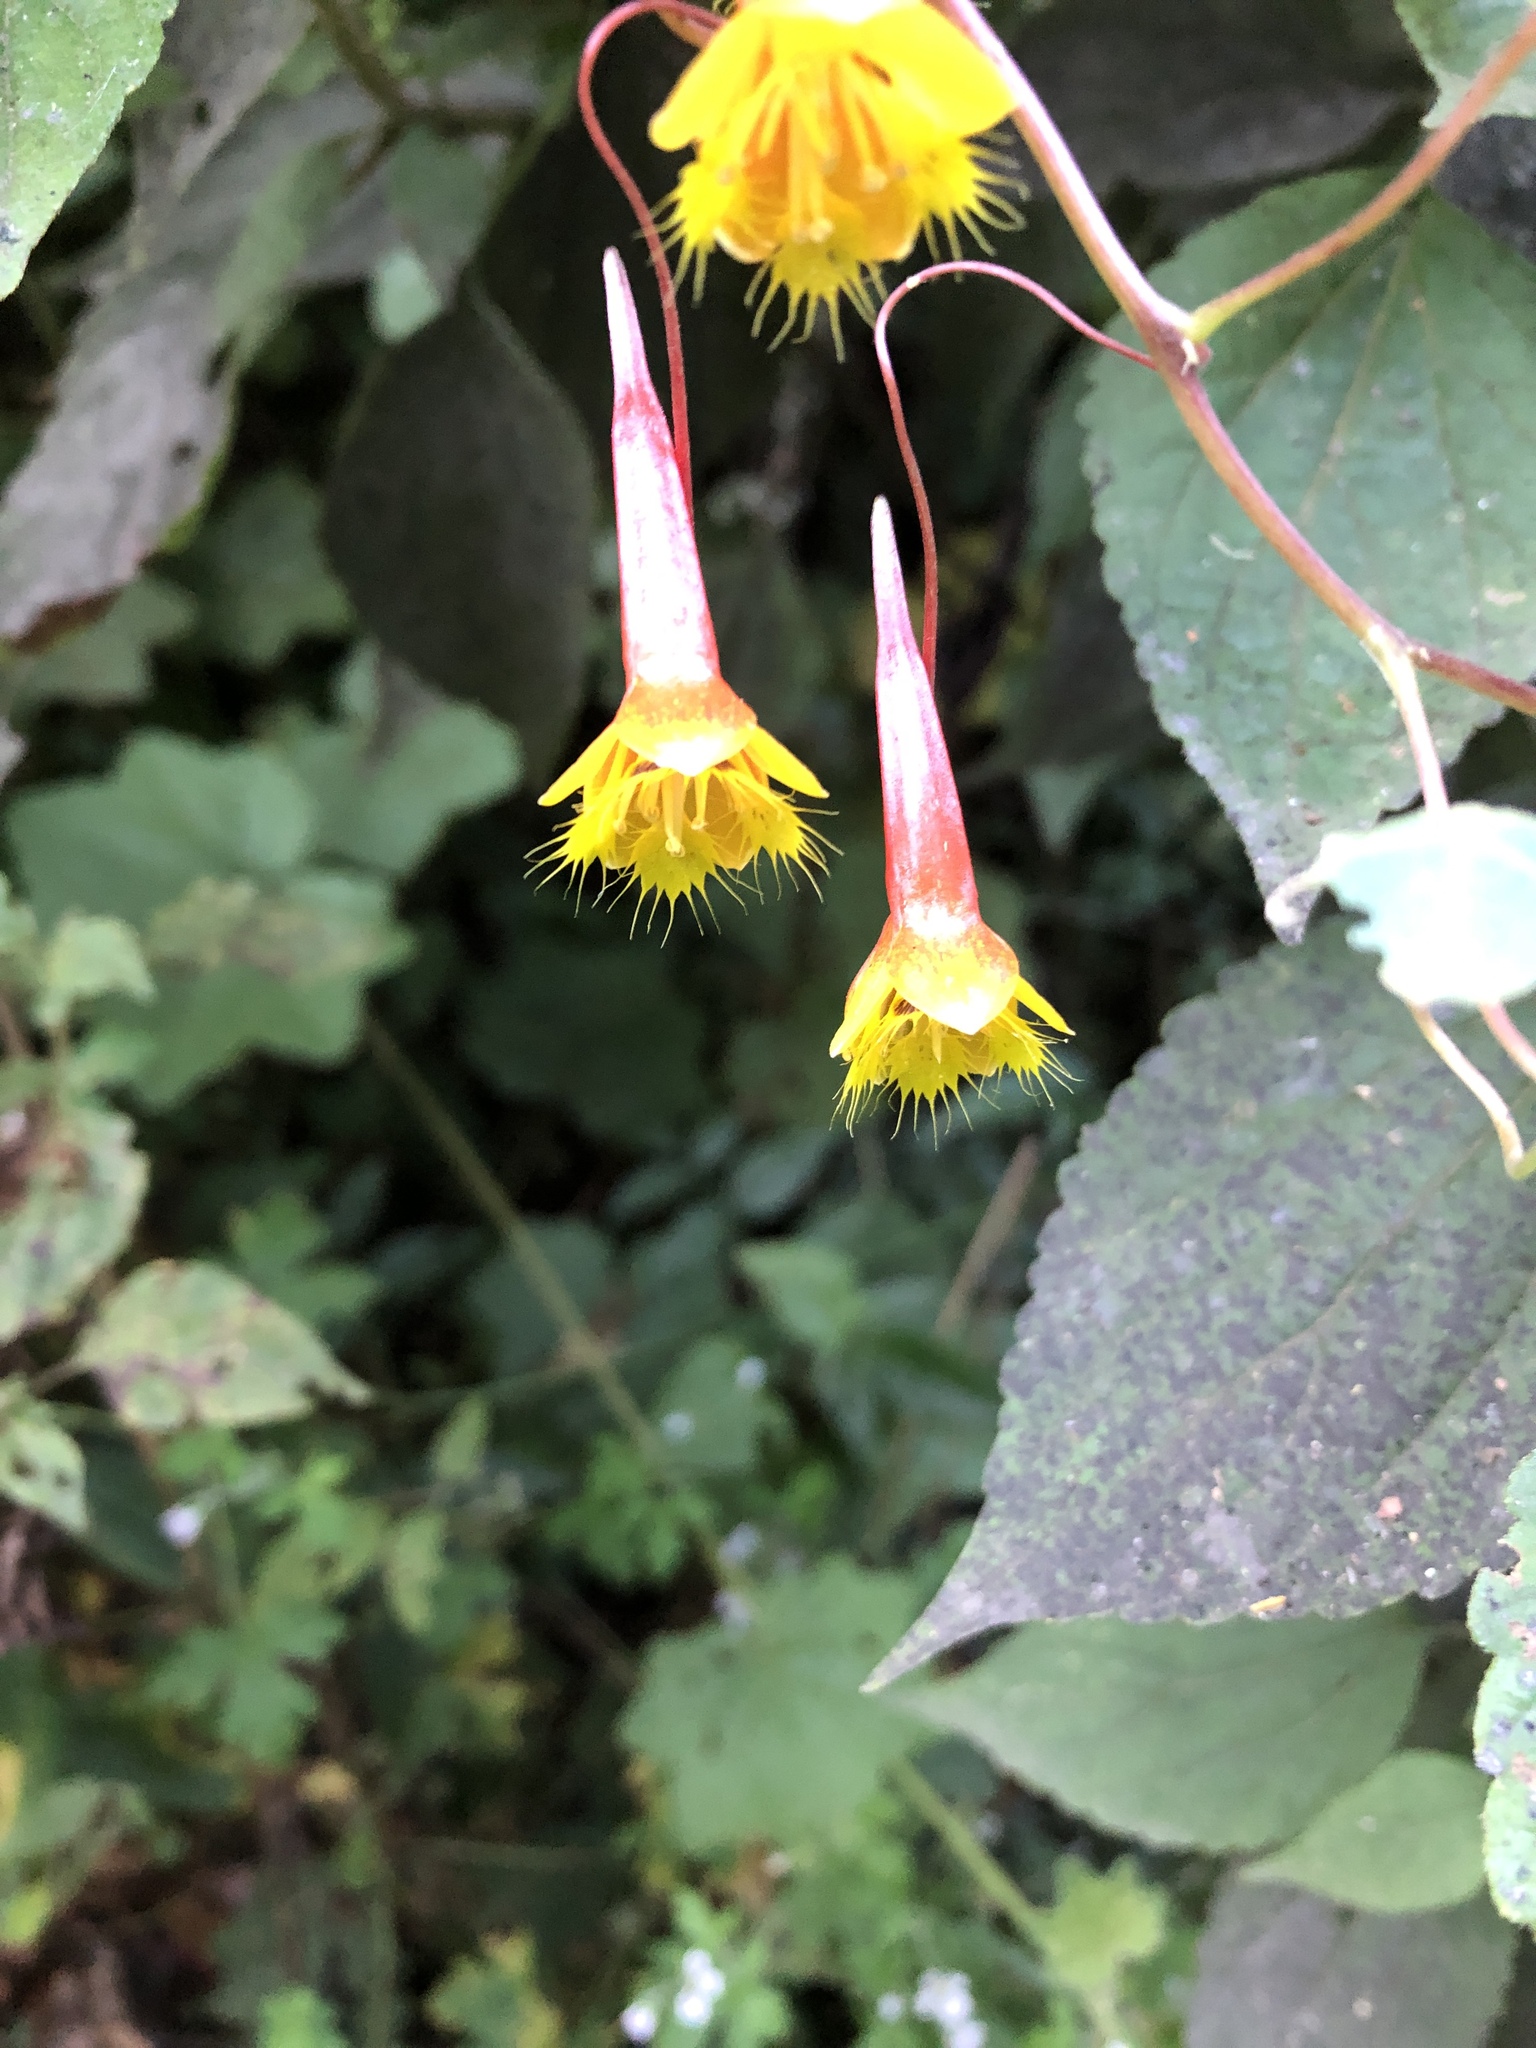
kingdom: Plantae
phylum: Tracheophyta
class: Magnoliopsida
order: Brassicales
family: Tropaeolaceae
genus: Tropaeolum
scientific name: Tropaeolum emarginatum
